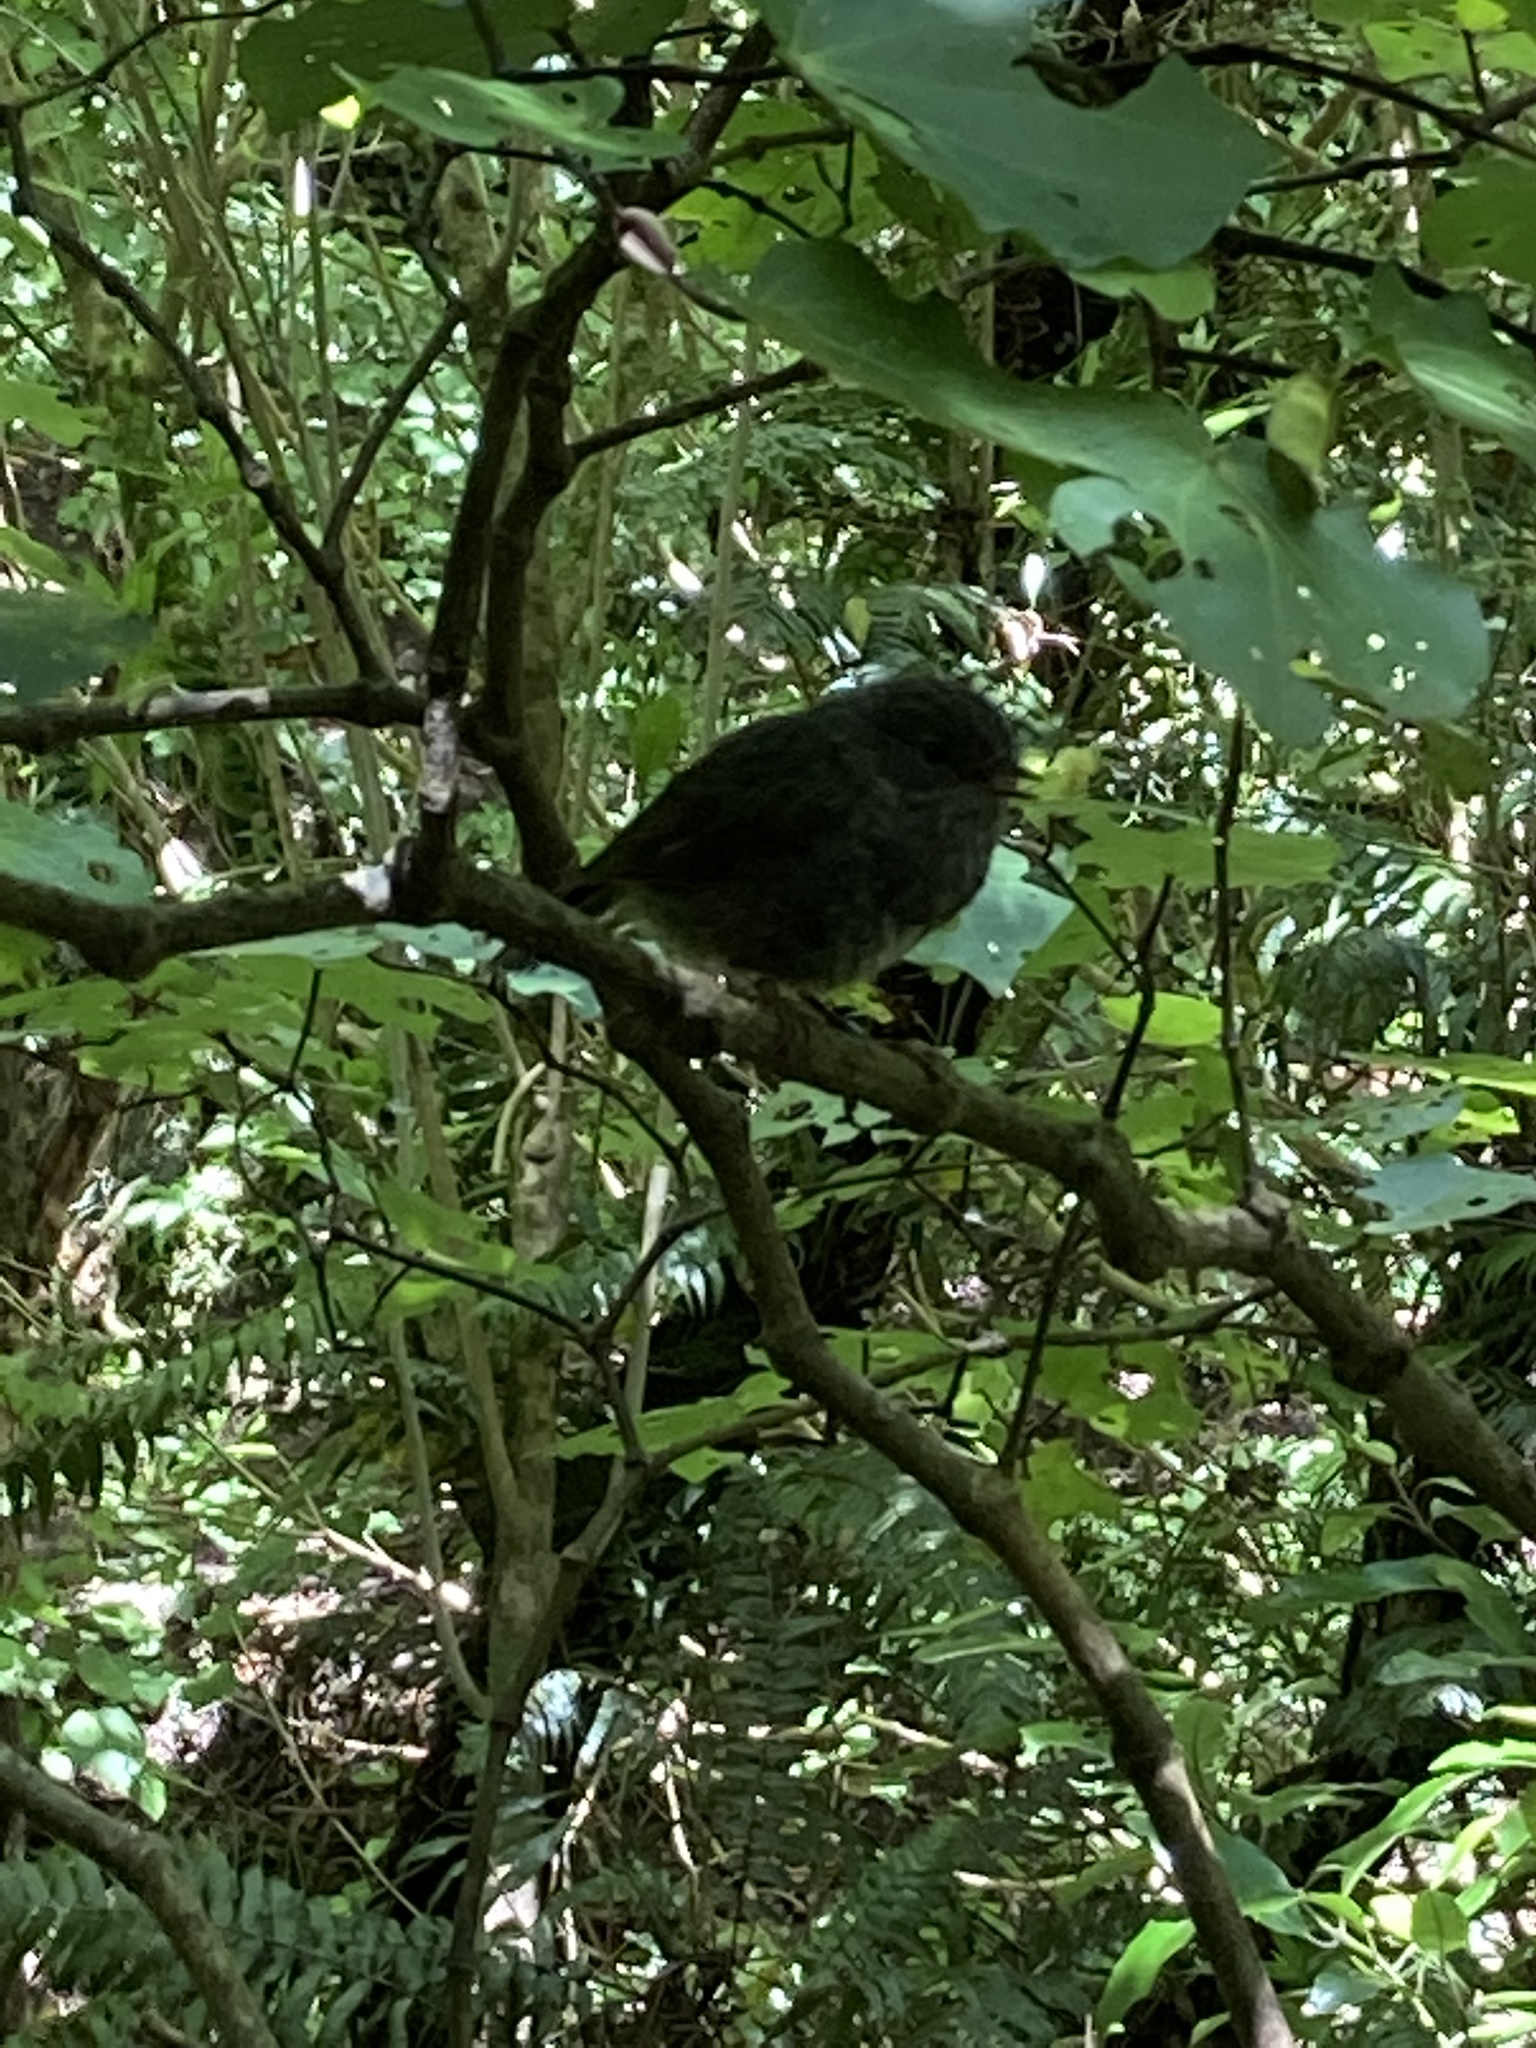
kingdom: Animalia
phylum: Chordata
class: Aves
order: Passeriformes
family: Petroicidae
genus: Petroica
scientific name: Petroica australis
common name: New zealand robin
